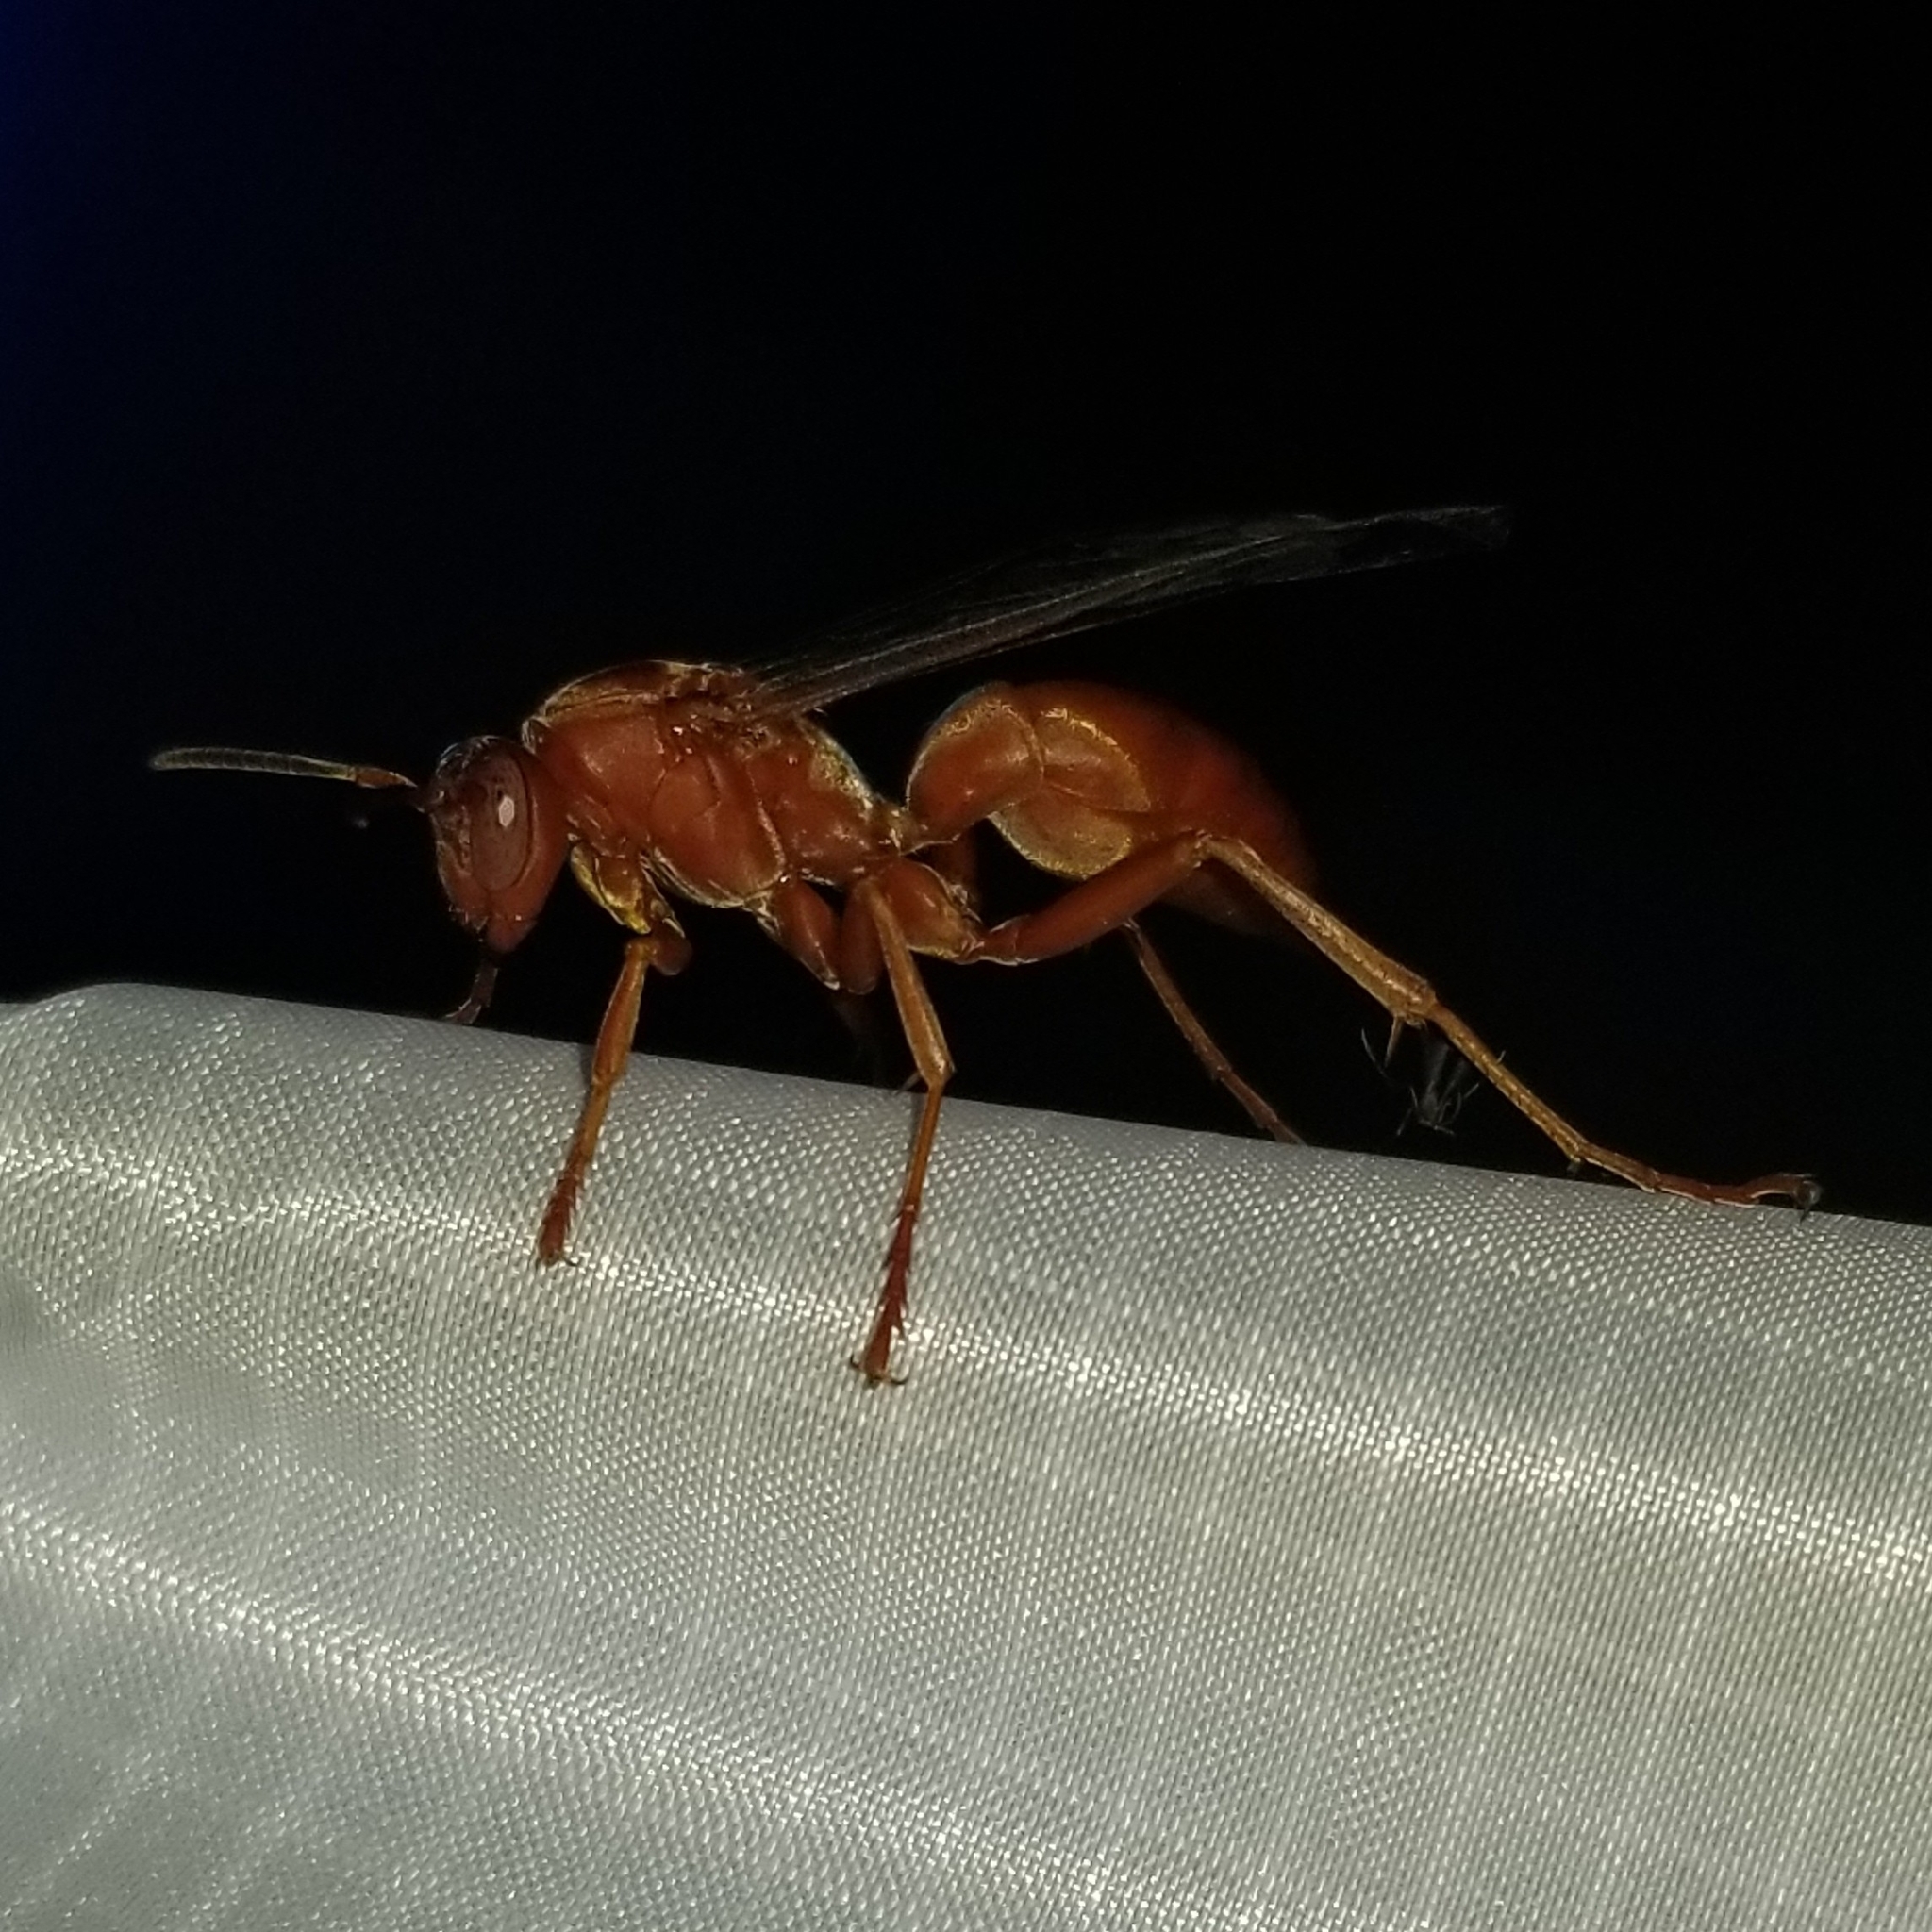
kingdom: Animalia
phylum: Arthropoda
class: Insecta
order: Hymenoptera
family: Eumenidae
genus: Polistes
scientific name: Polistes carolina
